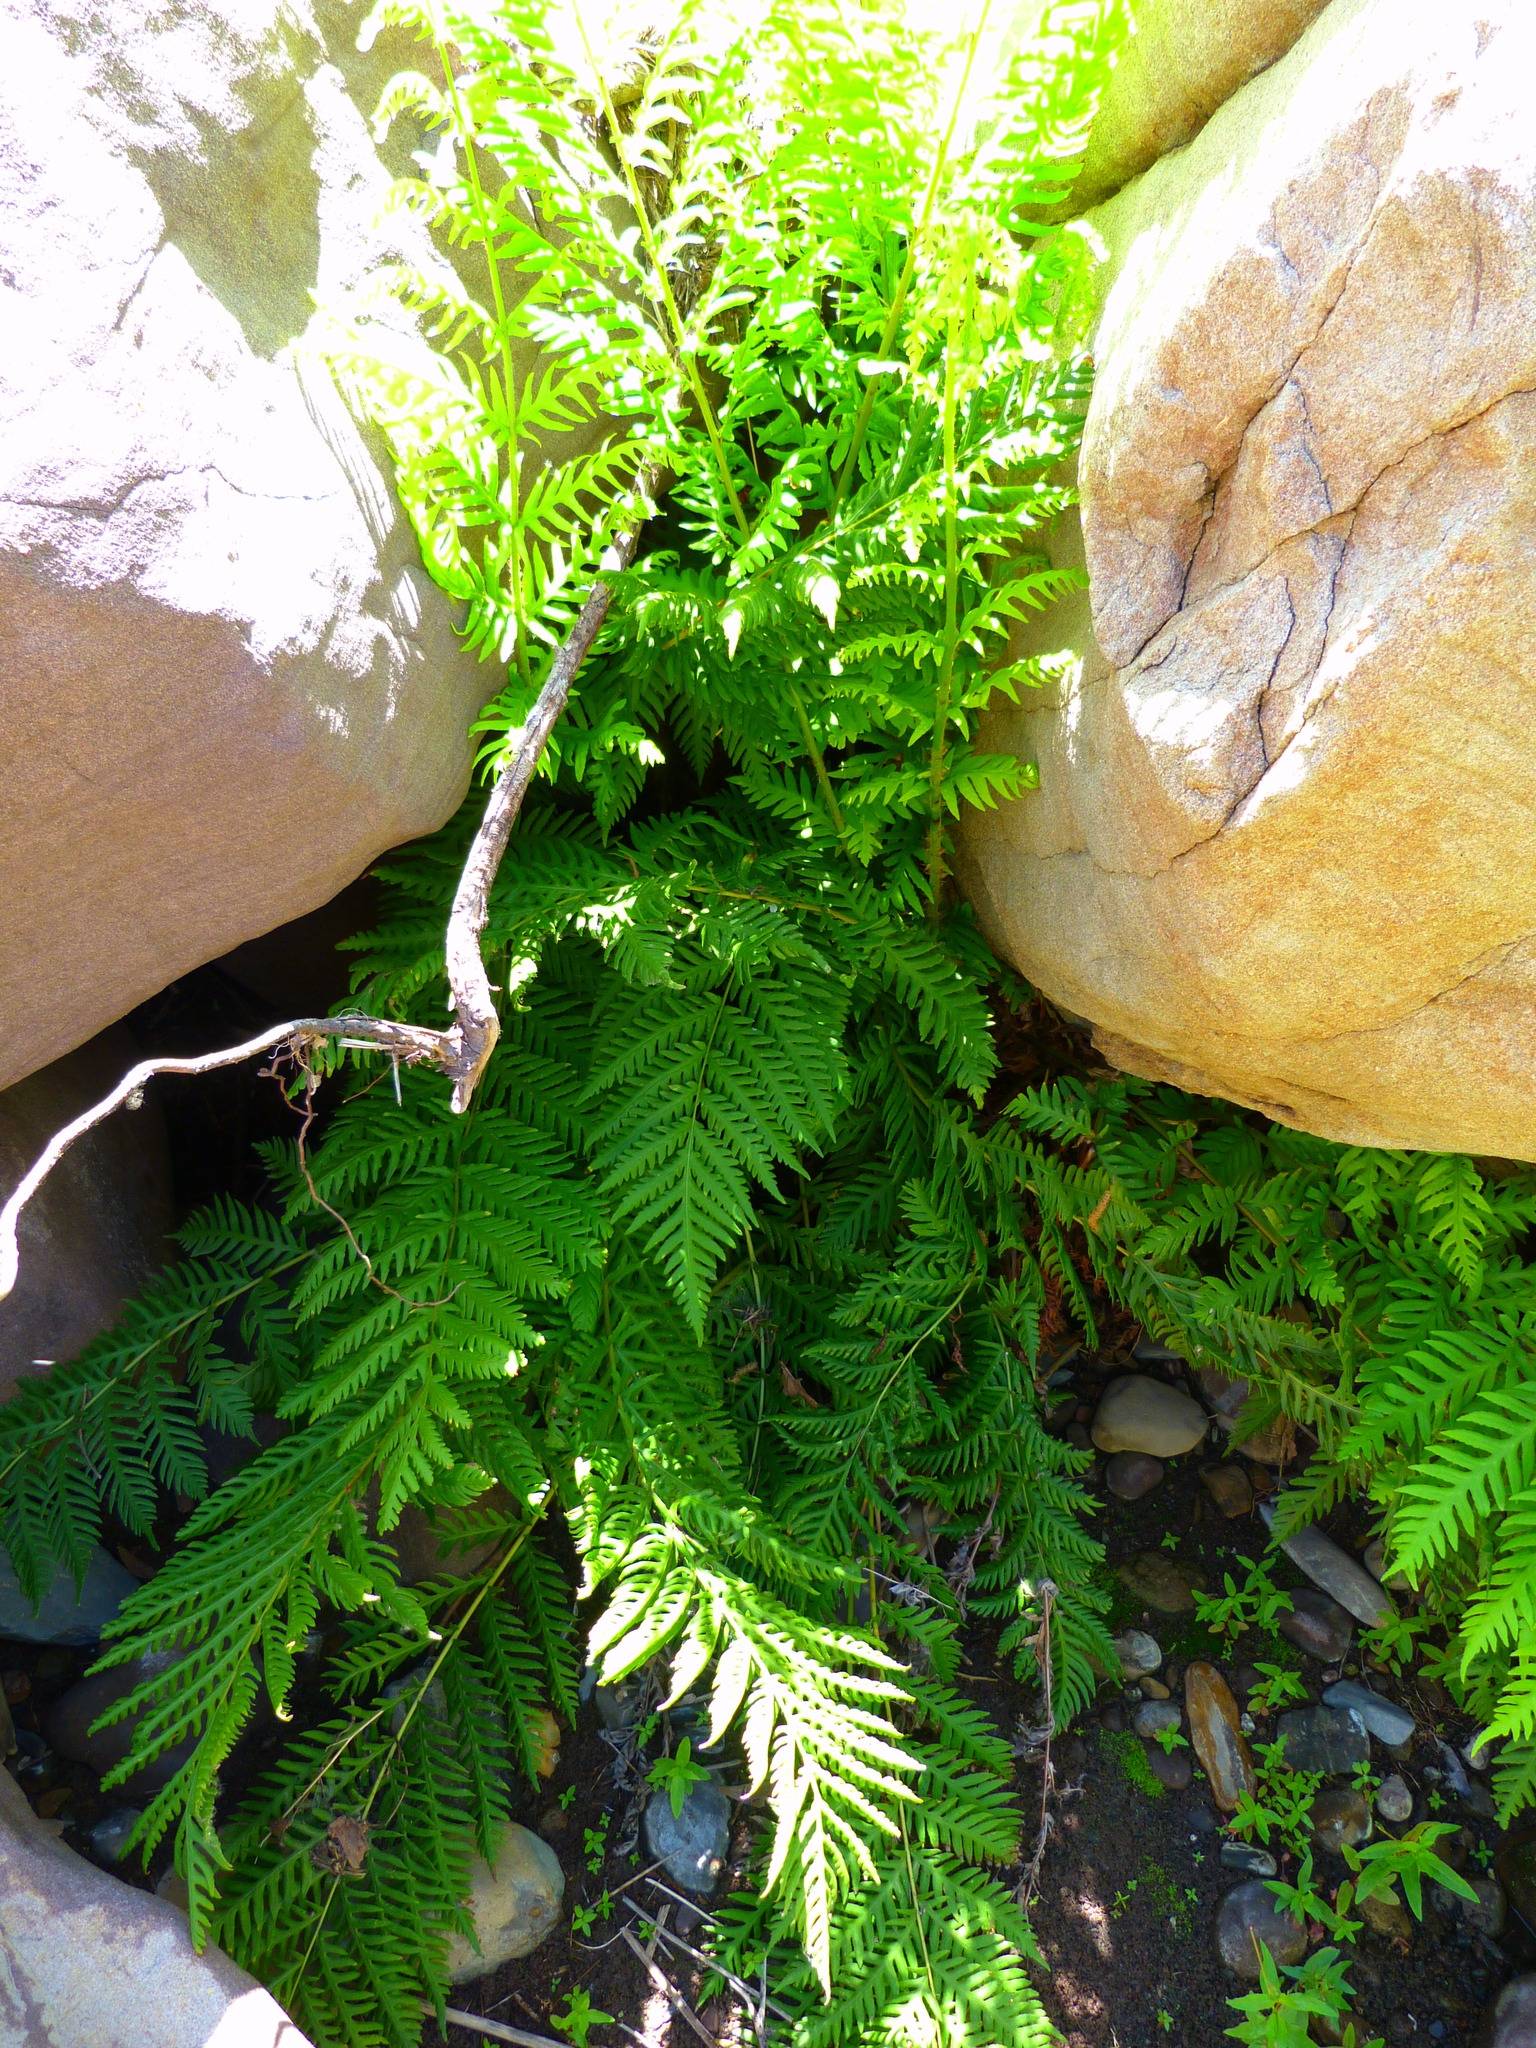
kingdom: Plantae
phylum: Tracheophyta
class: Polypodiopsida
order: Polypodiales
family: Blechnaceae
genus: Woodwardia
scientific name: Woodwardia fimbriata
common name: Giant chain fern
